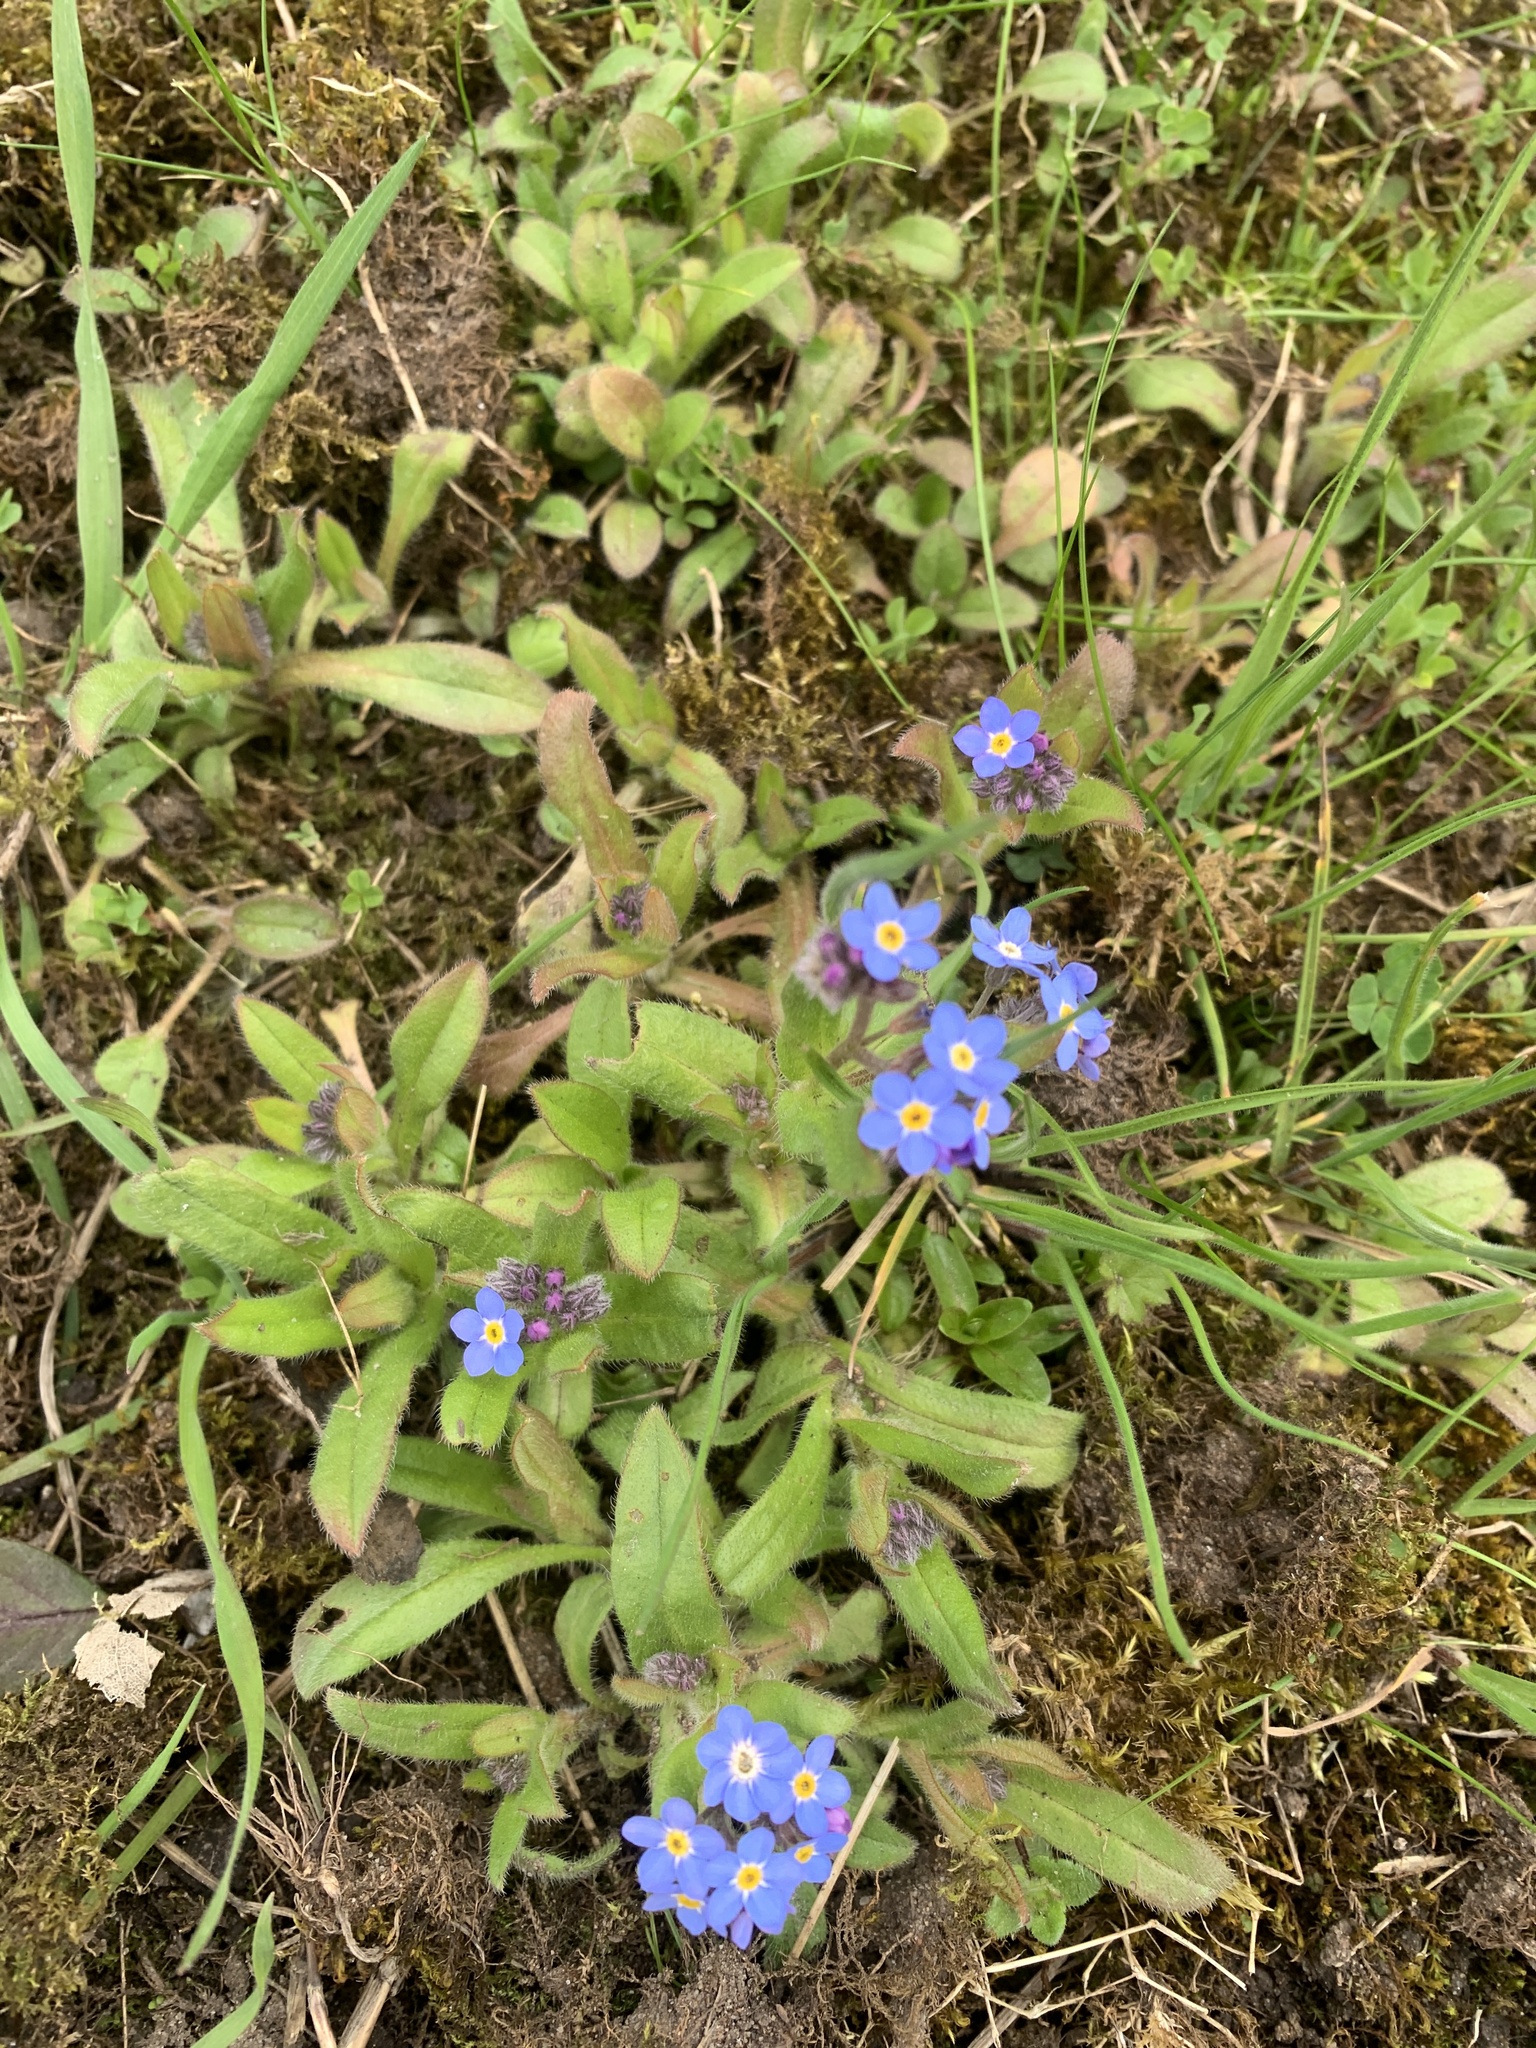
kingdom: Plantae
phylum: Tracheophyta
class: Magnoliopsida
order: Boraginales
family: Boraginaceae
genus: Myosotis
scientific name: Myosotis sylvatica
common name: Wood forget-me-not
